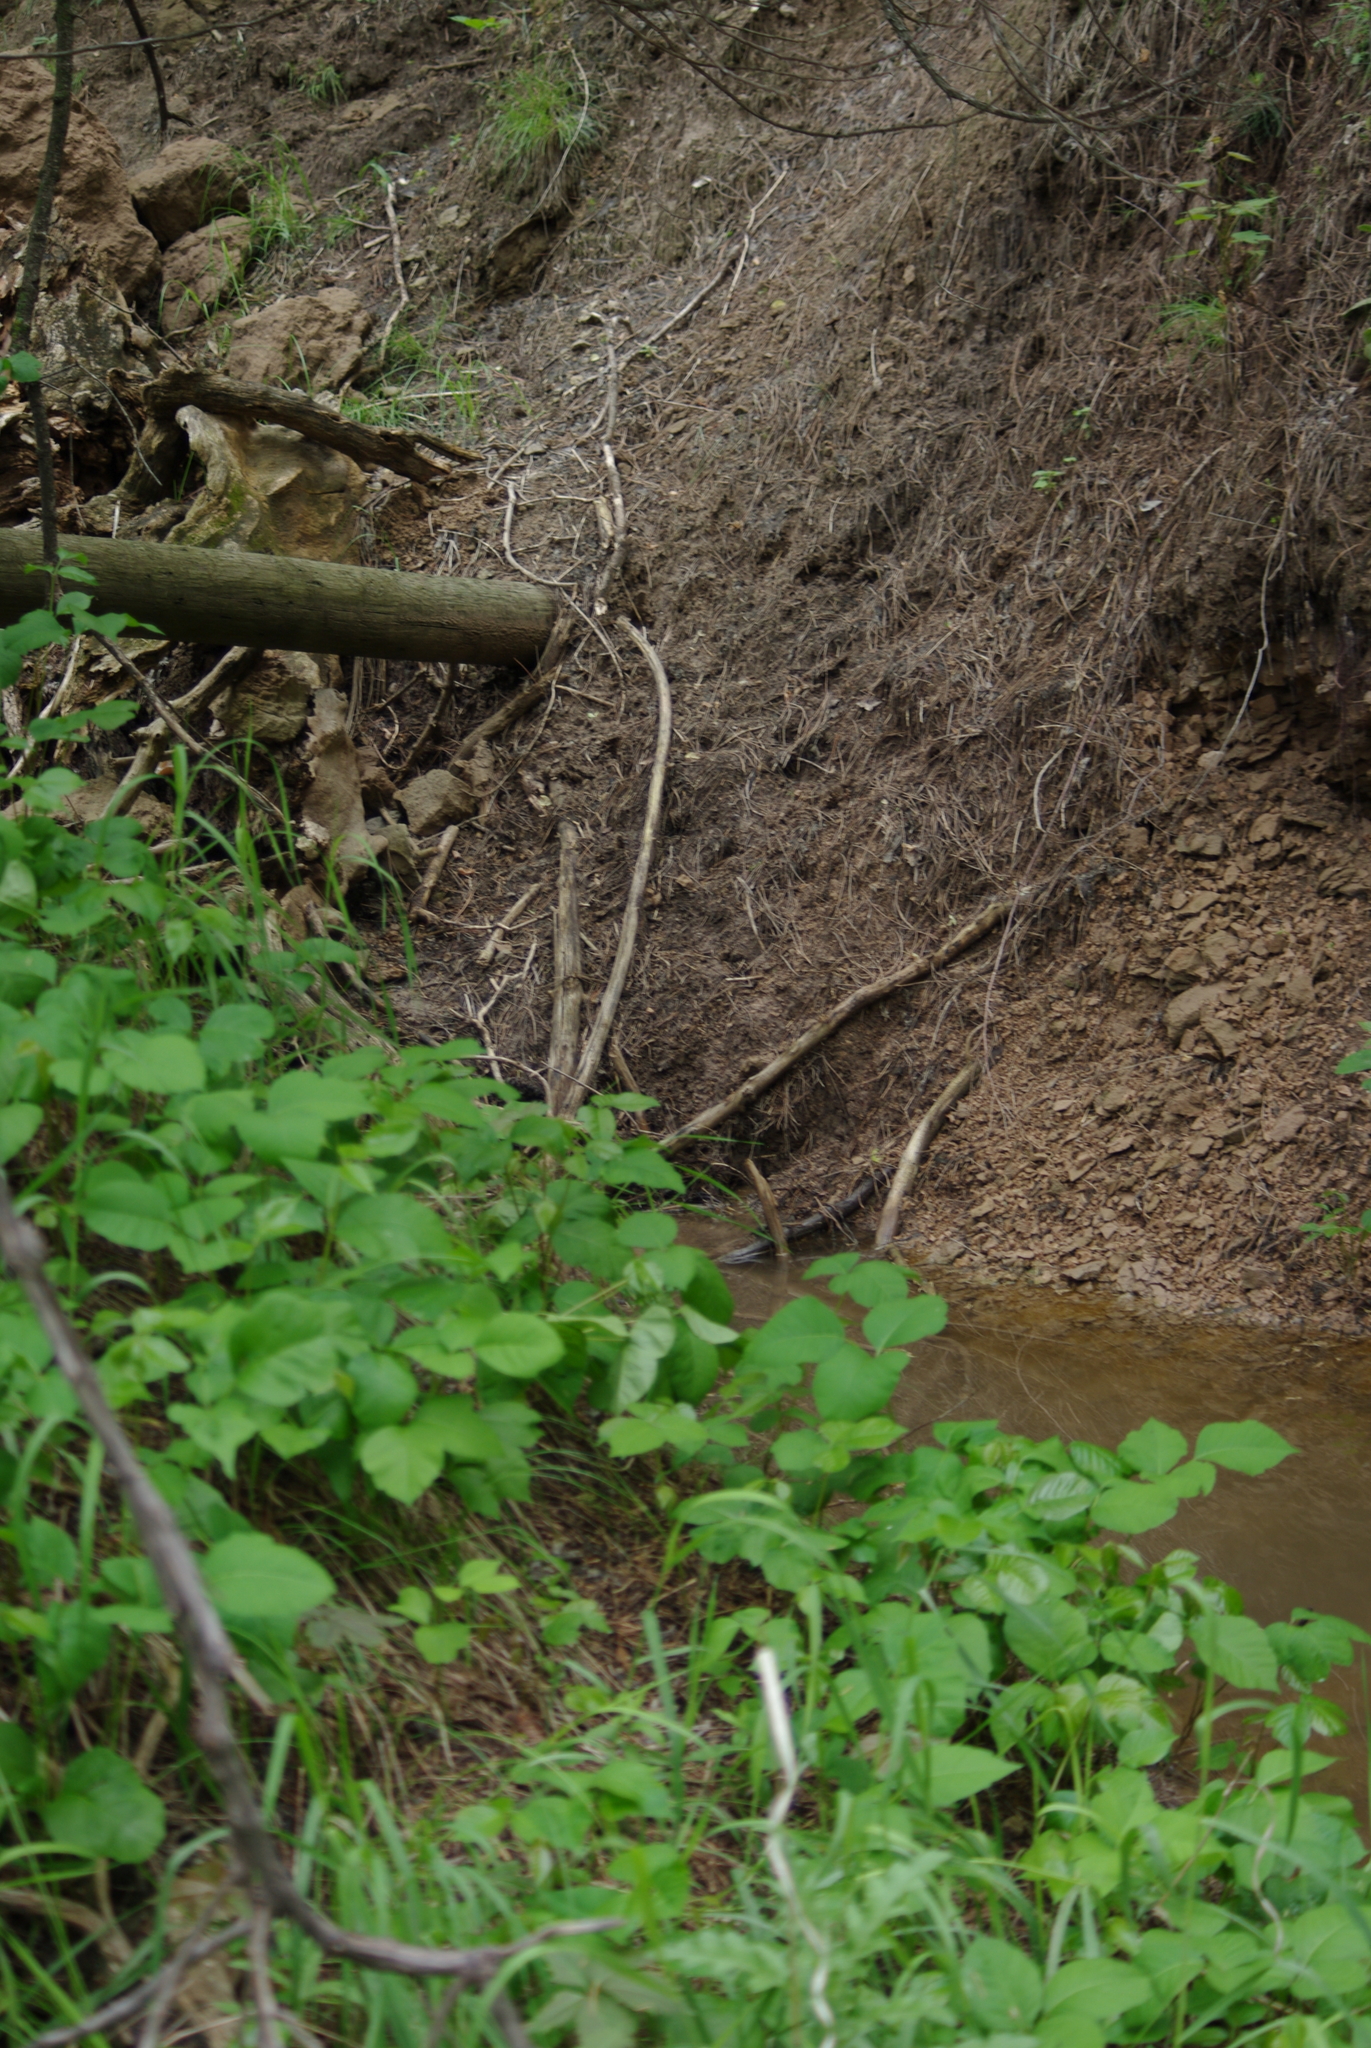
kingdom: Plantae
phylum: Tracheophyta
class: Magnoliopsida
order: Sapindales
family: Anacardiaceae
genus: Toxicodendron
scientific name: Toxicodendron rydbergii
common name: Rydberg's poison-ivy
